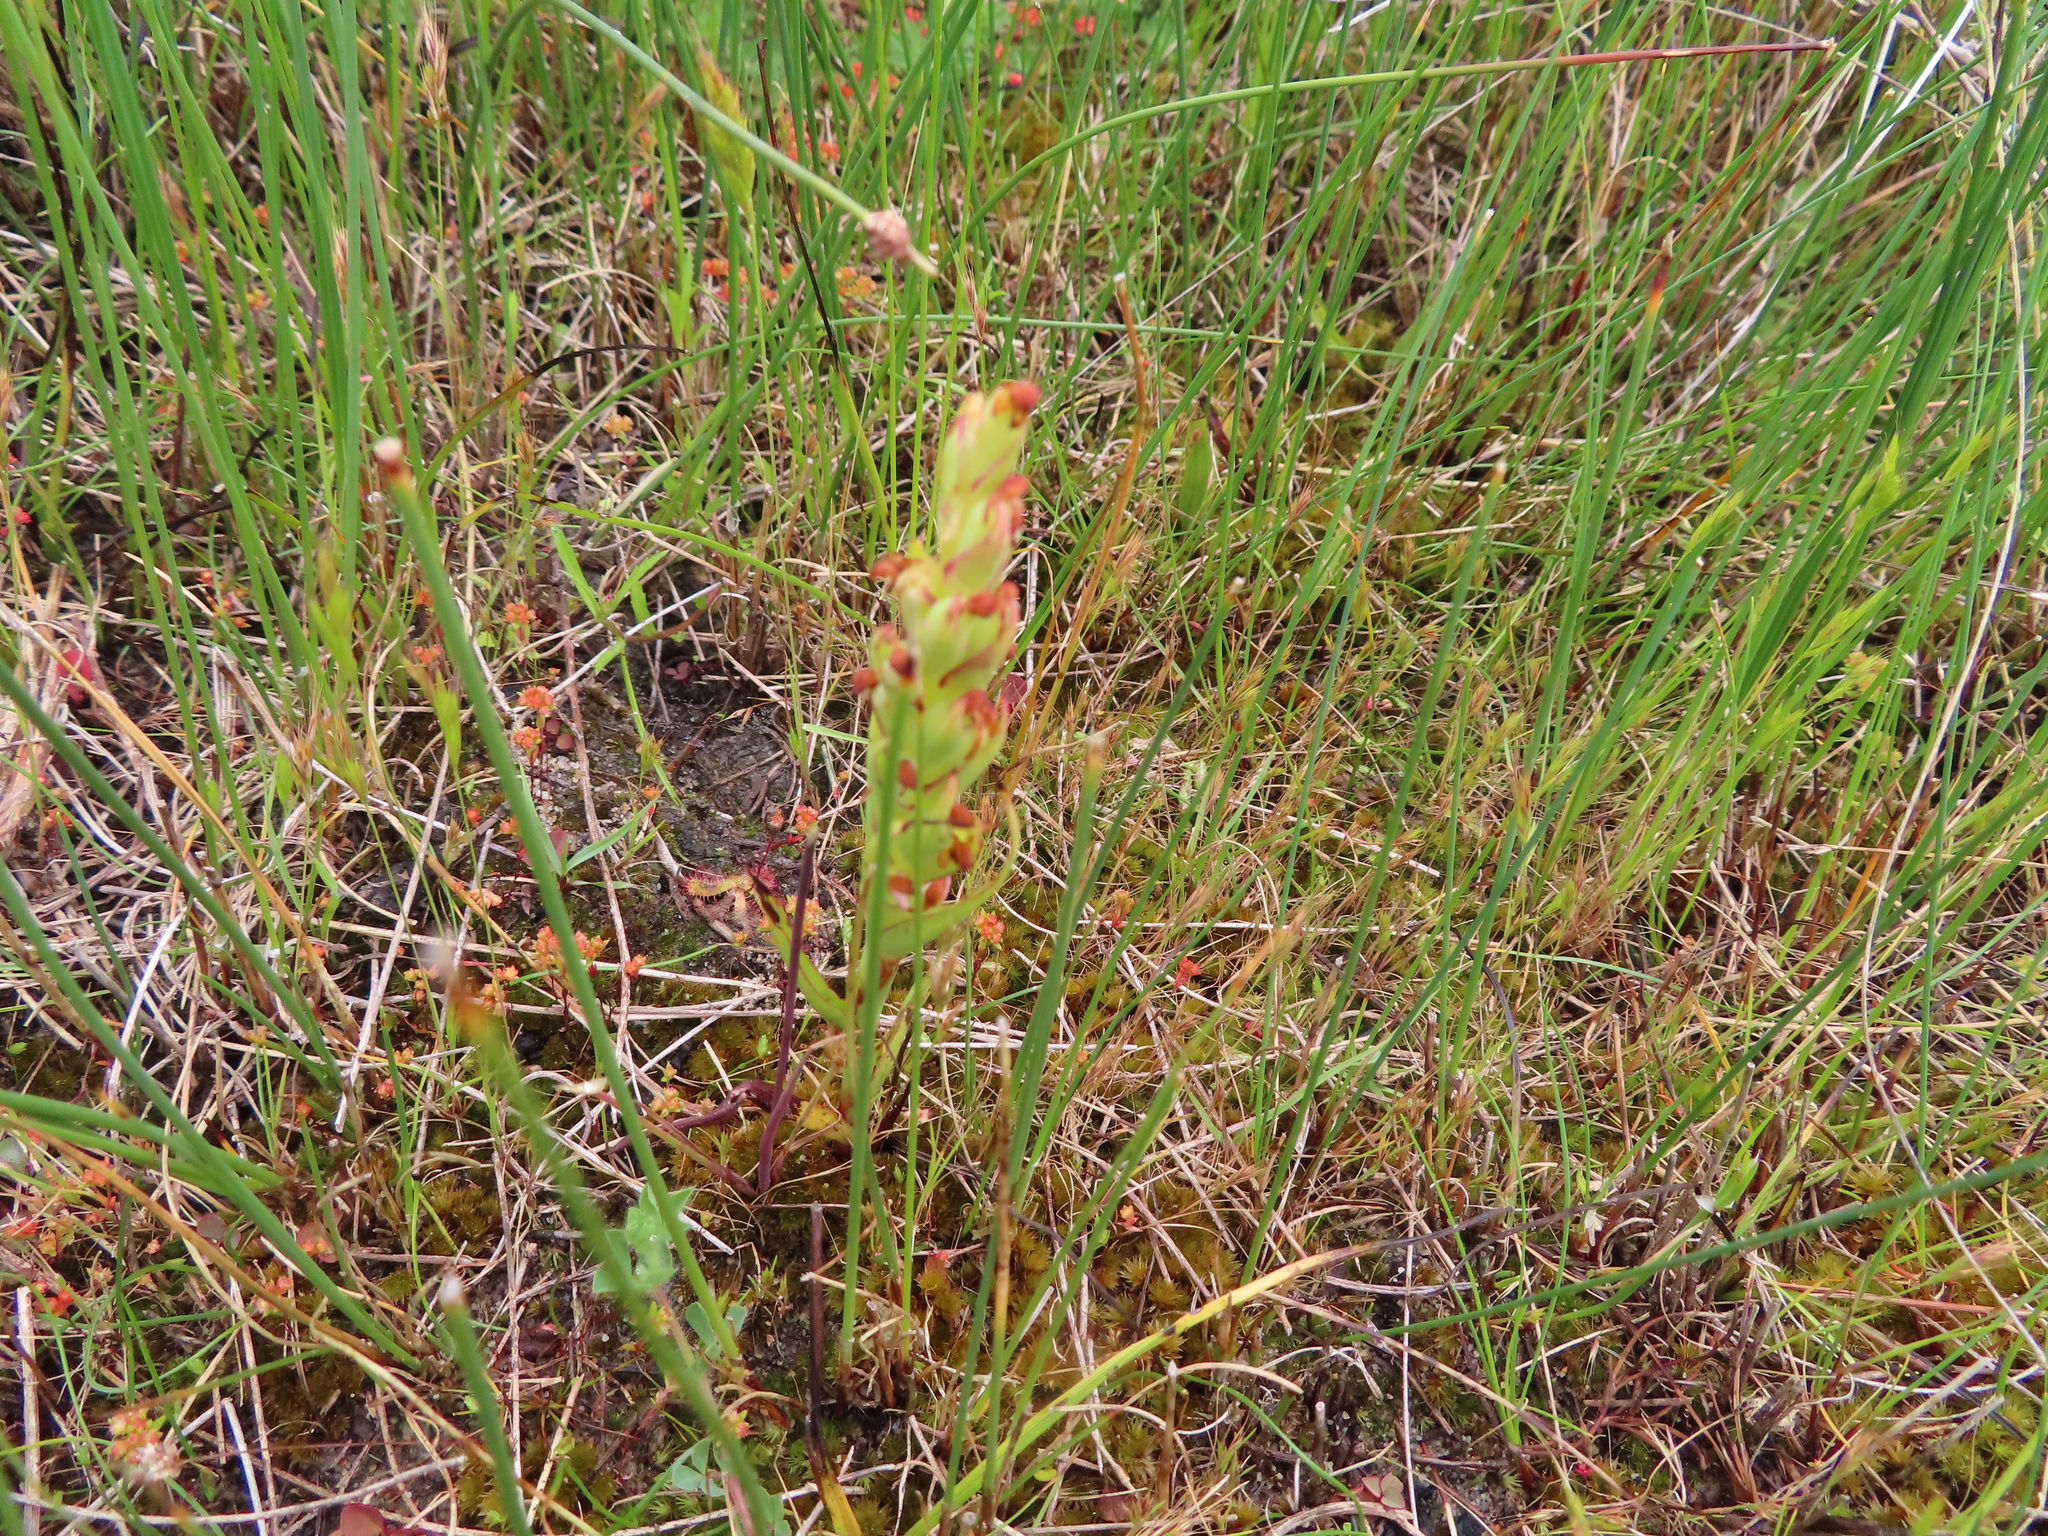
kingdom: Plantae
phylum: Tracheophyta
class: Liliopsida
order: Asparagales
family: Orchidaceae
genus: Disa
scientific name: Disa bracteata
